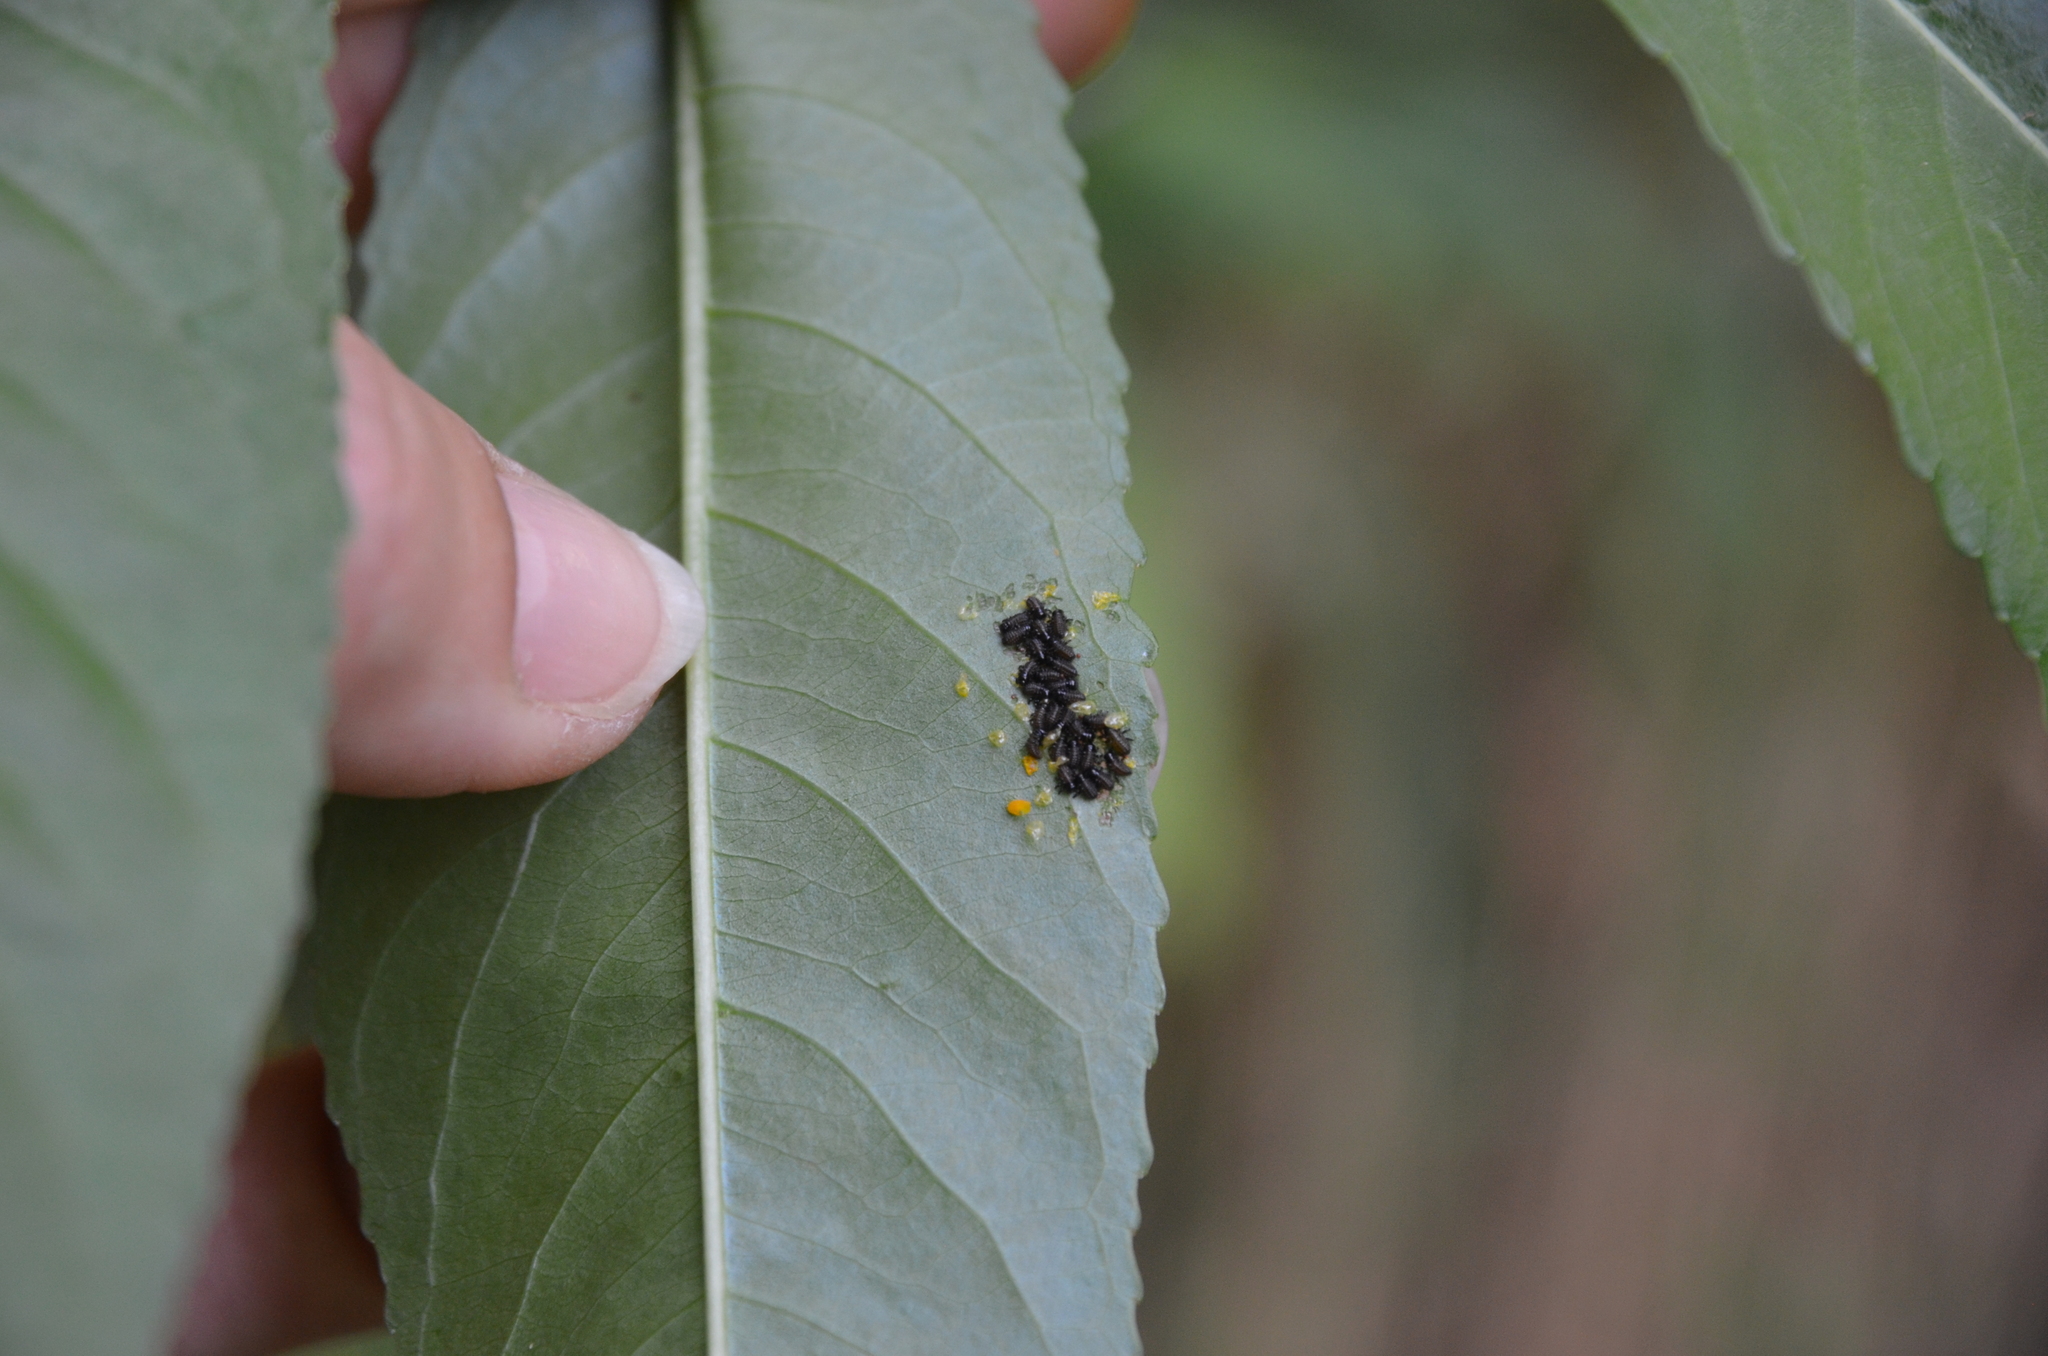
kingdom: Animalia
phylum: Arthropoda
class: Insecta
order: Coleoptera
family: Chrysomelidae
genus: Plagiodera
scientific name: Plagiodera
